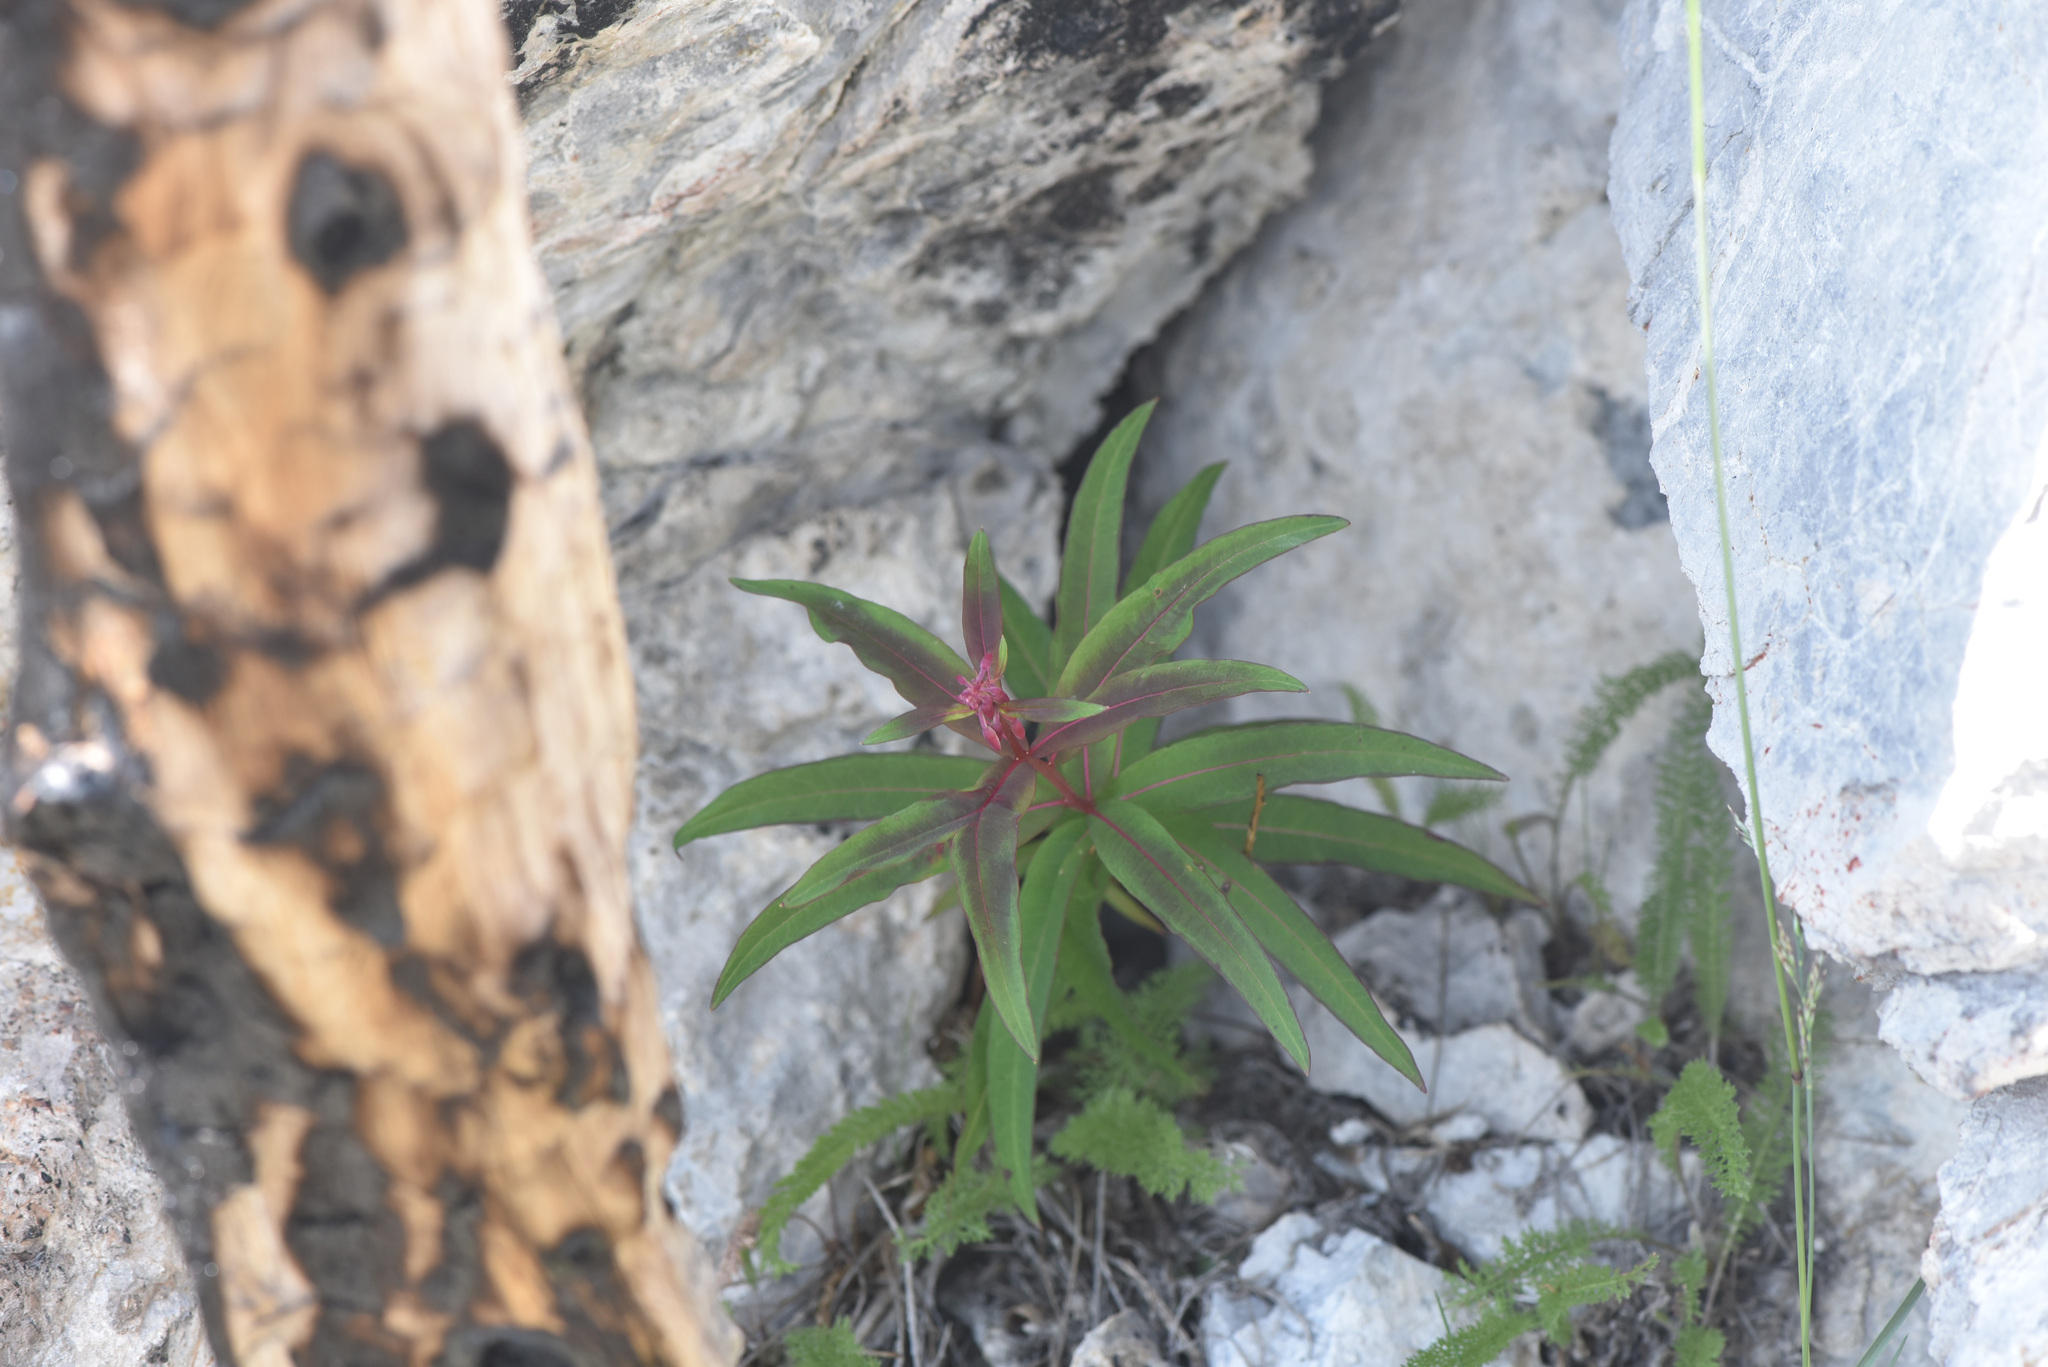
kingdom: Plantae
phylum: Tracheophyta
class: Magnoliopsida
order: Myrtales
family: Onagraceae
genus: Chamaenerion
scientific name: Chamaenerion angustifolium
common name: Fireweed
